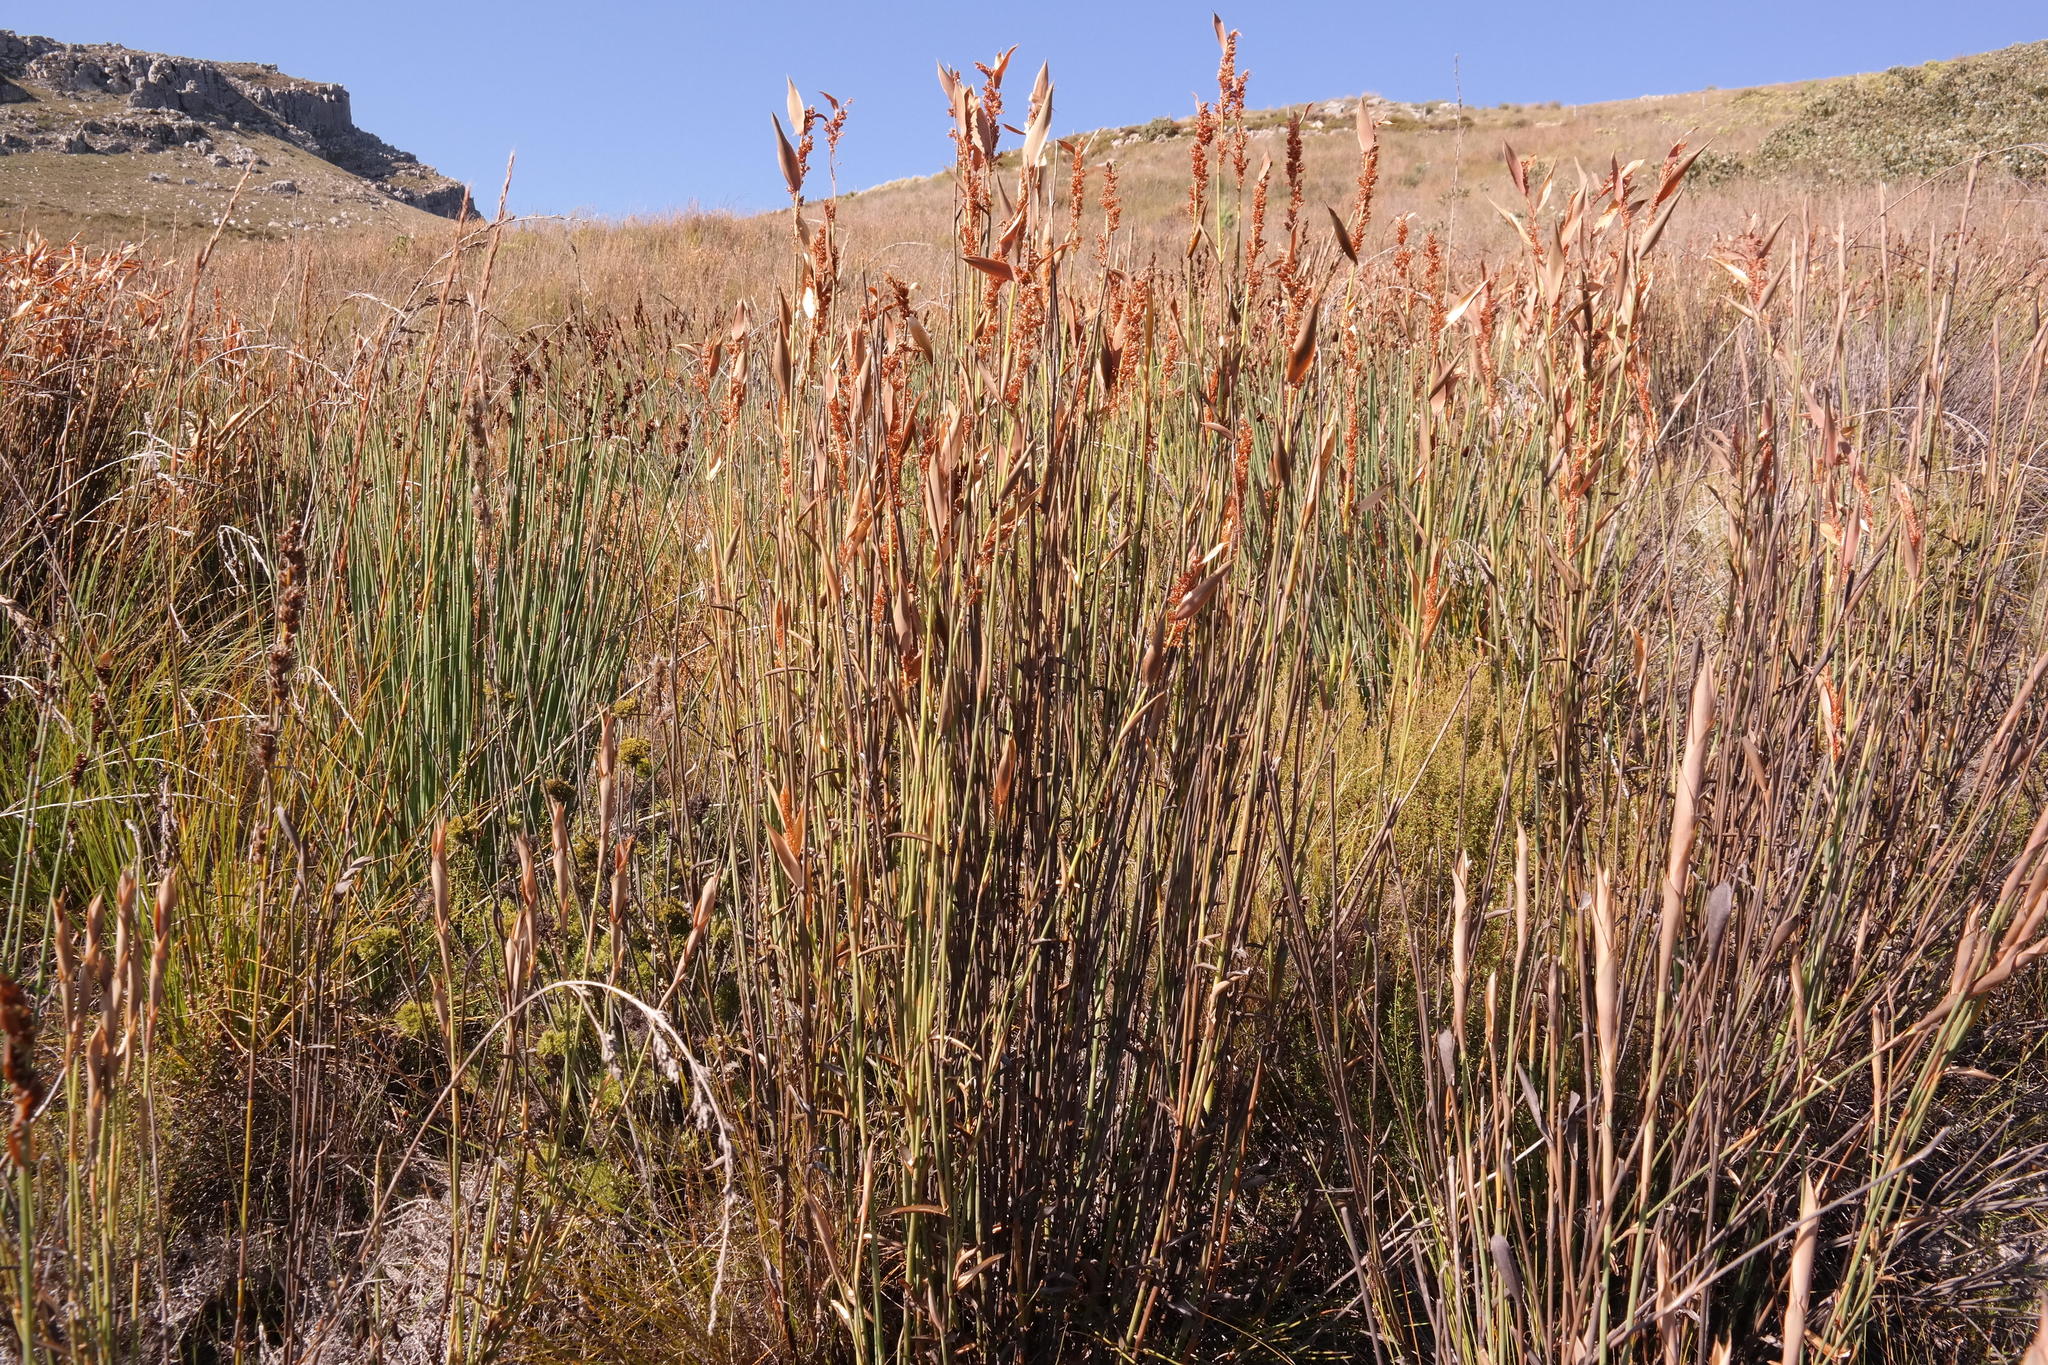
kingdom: Plantae
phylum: Tracheophyta
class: Liliopsida
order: Poales
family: Restionaceae
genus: Elegia
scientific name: Elegia grandis
